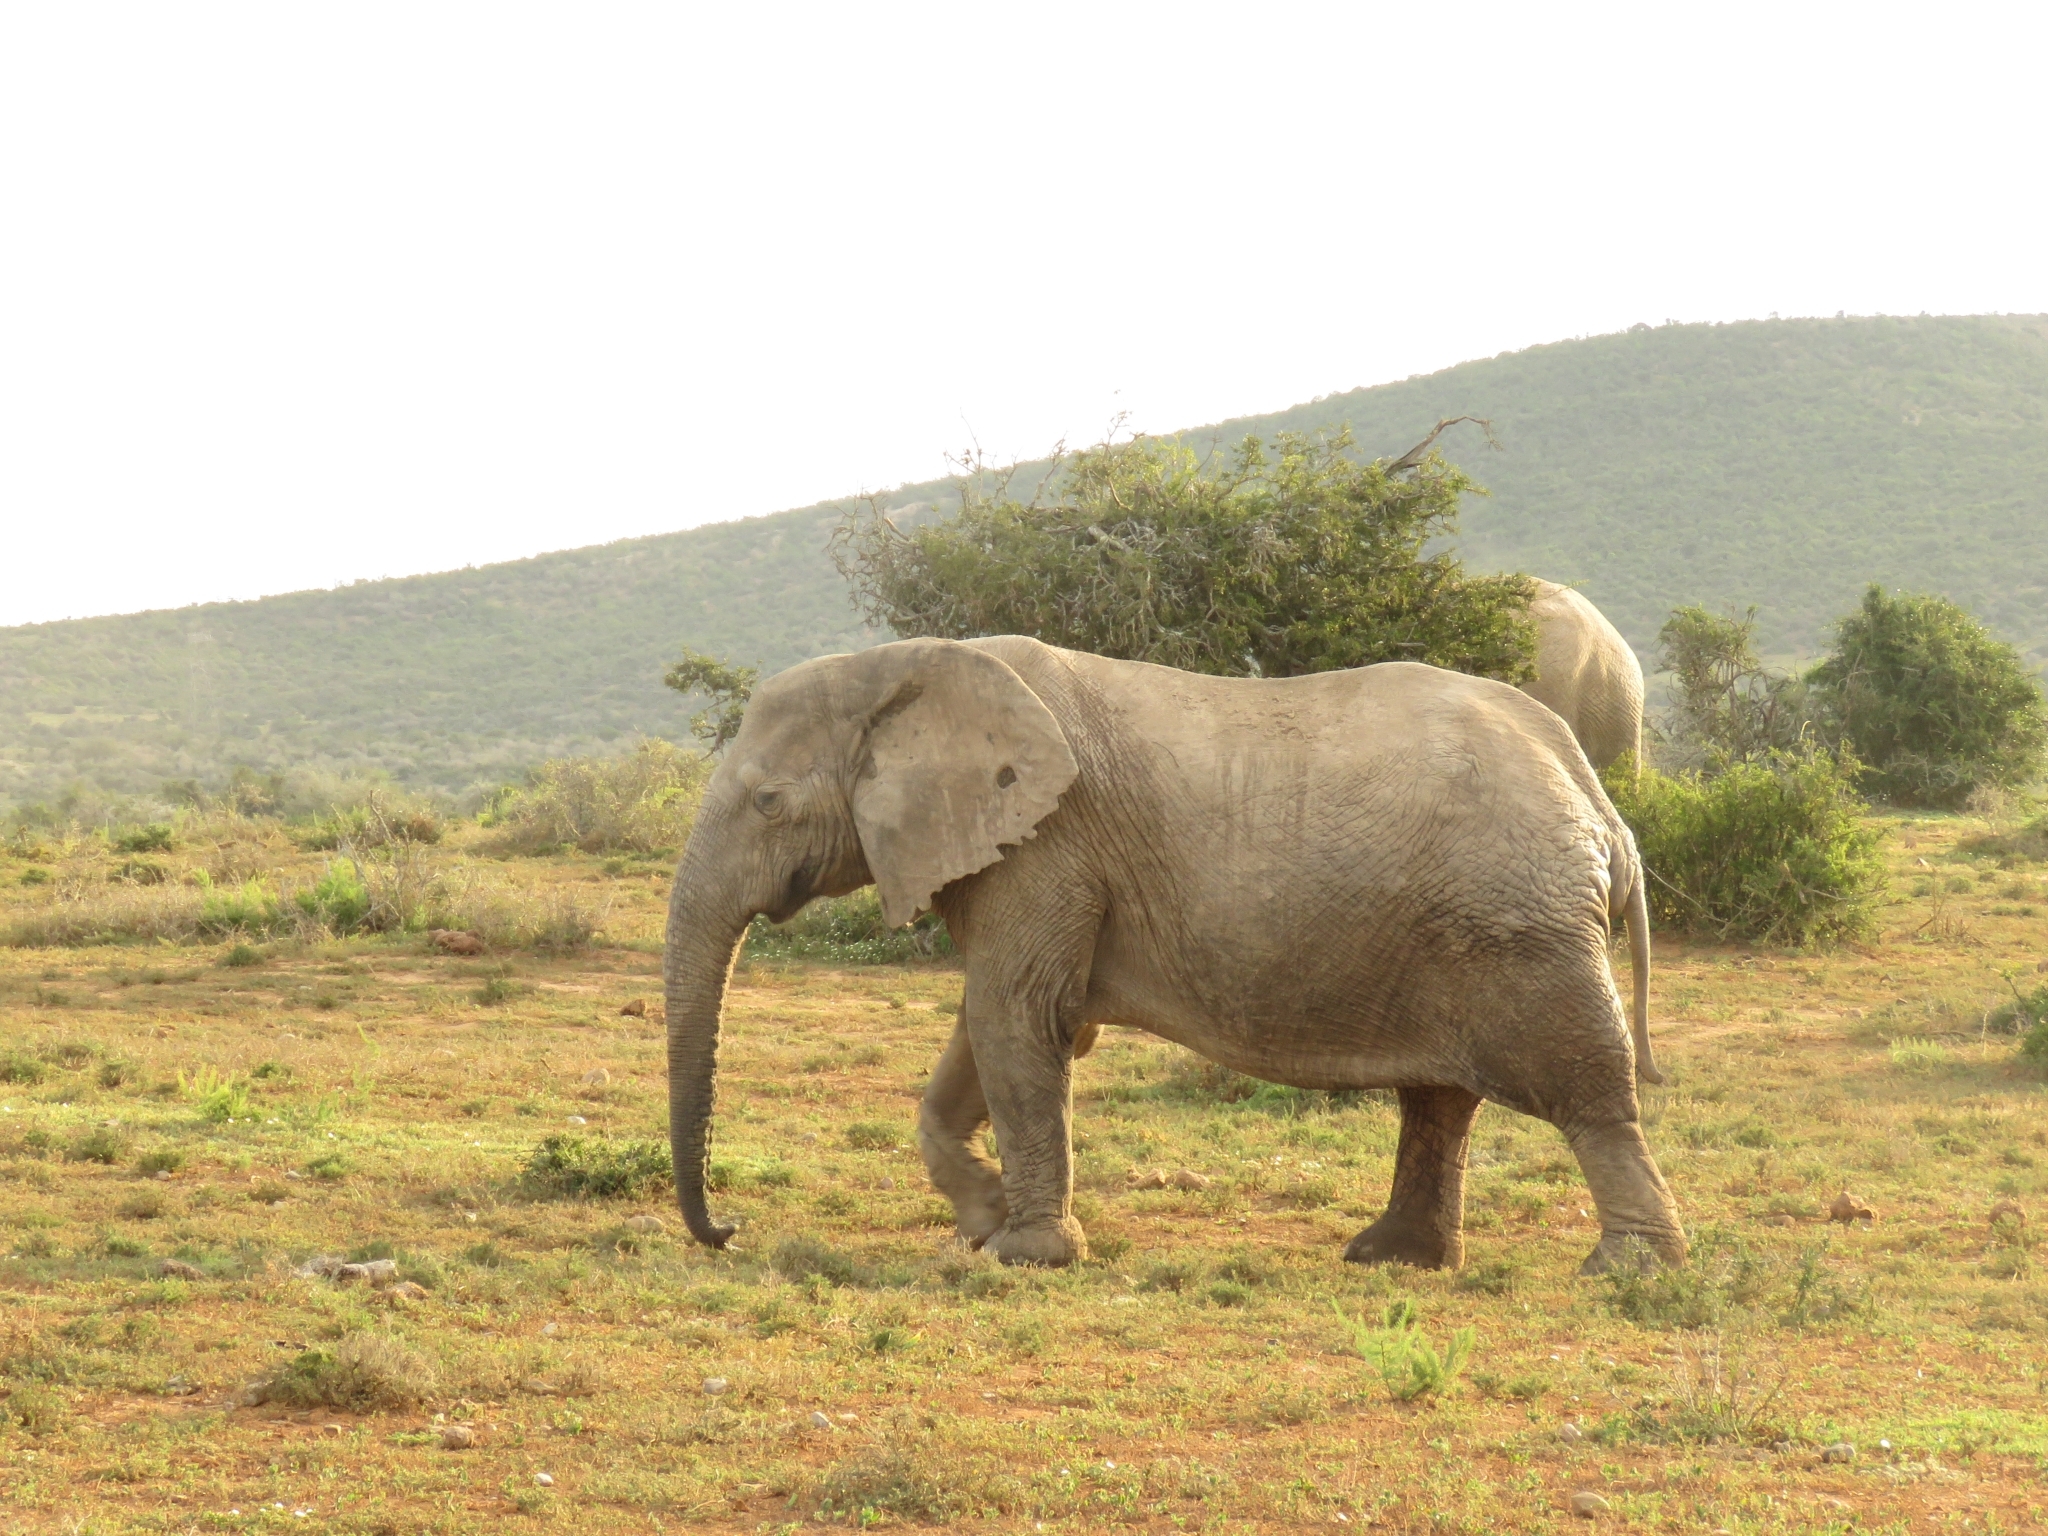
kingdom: Animalia
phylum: Chordata
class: Mammalia
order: Proboscidea
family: Elephantidae
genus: Loxodonta
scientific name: Loxodonta africana
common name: African elephant
